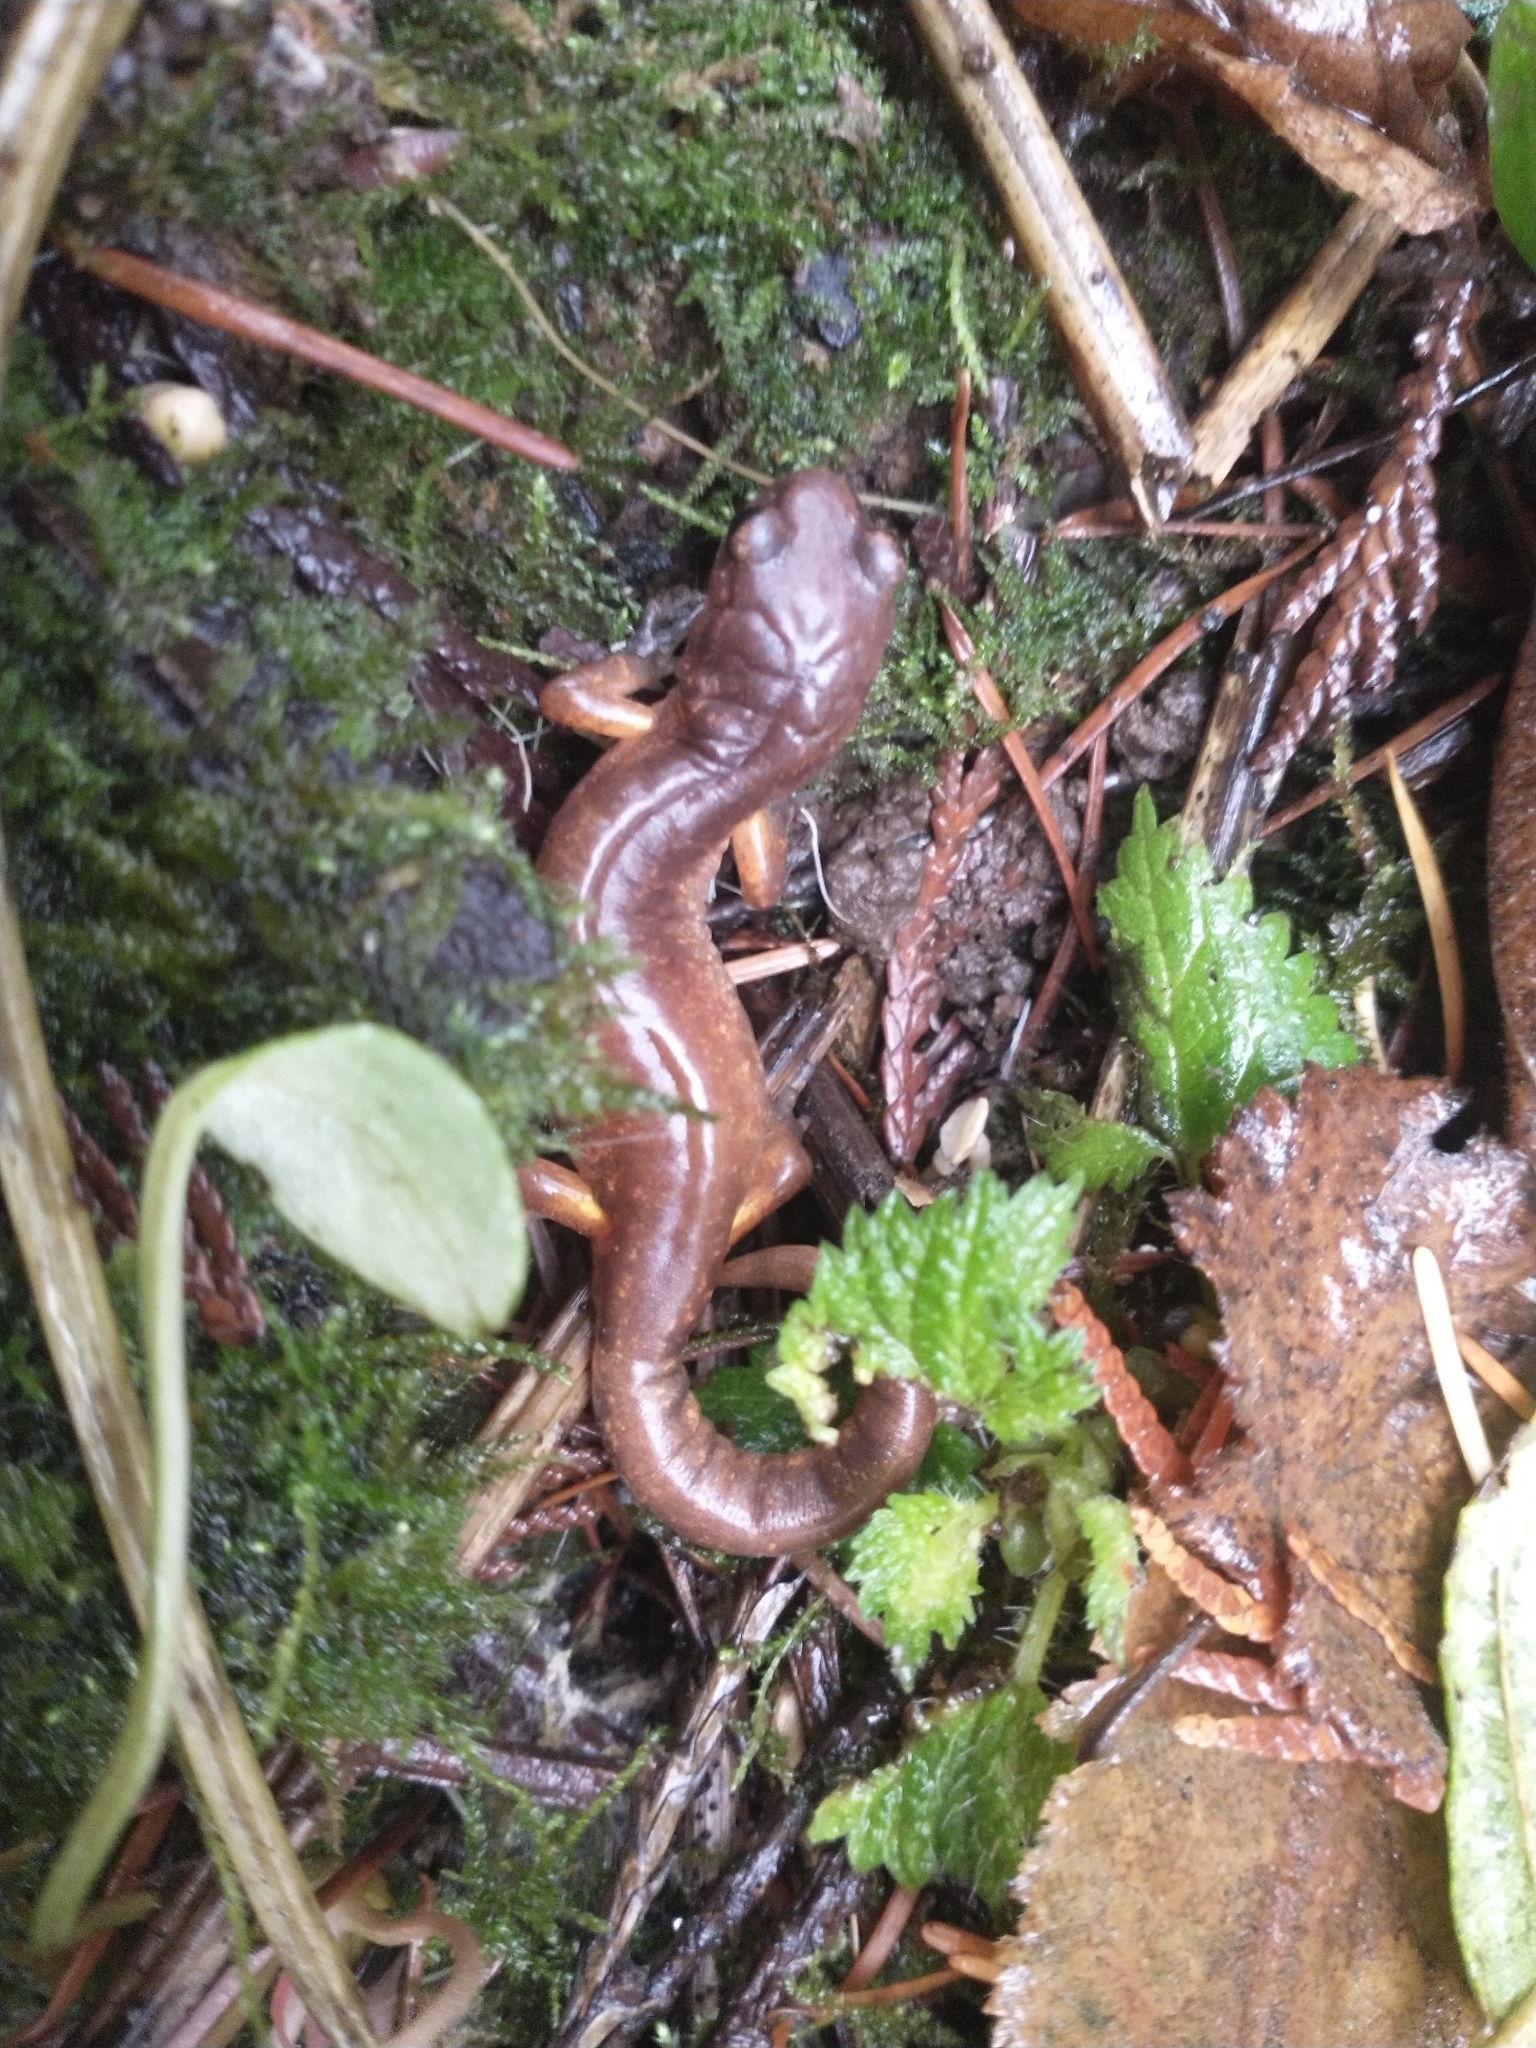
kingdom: Animalia
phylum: Chordata
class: Amphibia
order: Caudata
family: Plethodontidae
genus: Ensatina
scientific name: Ensatina eschscholtzii
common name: Ensatina
